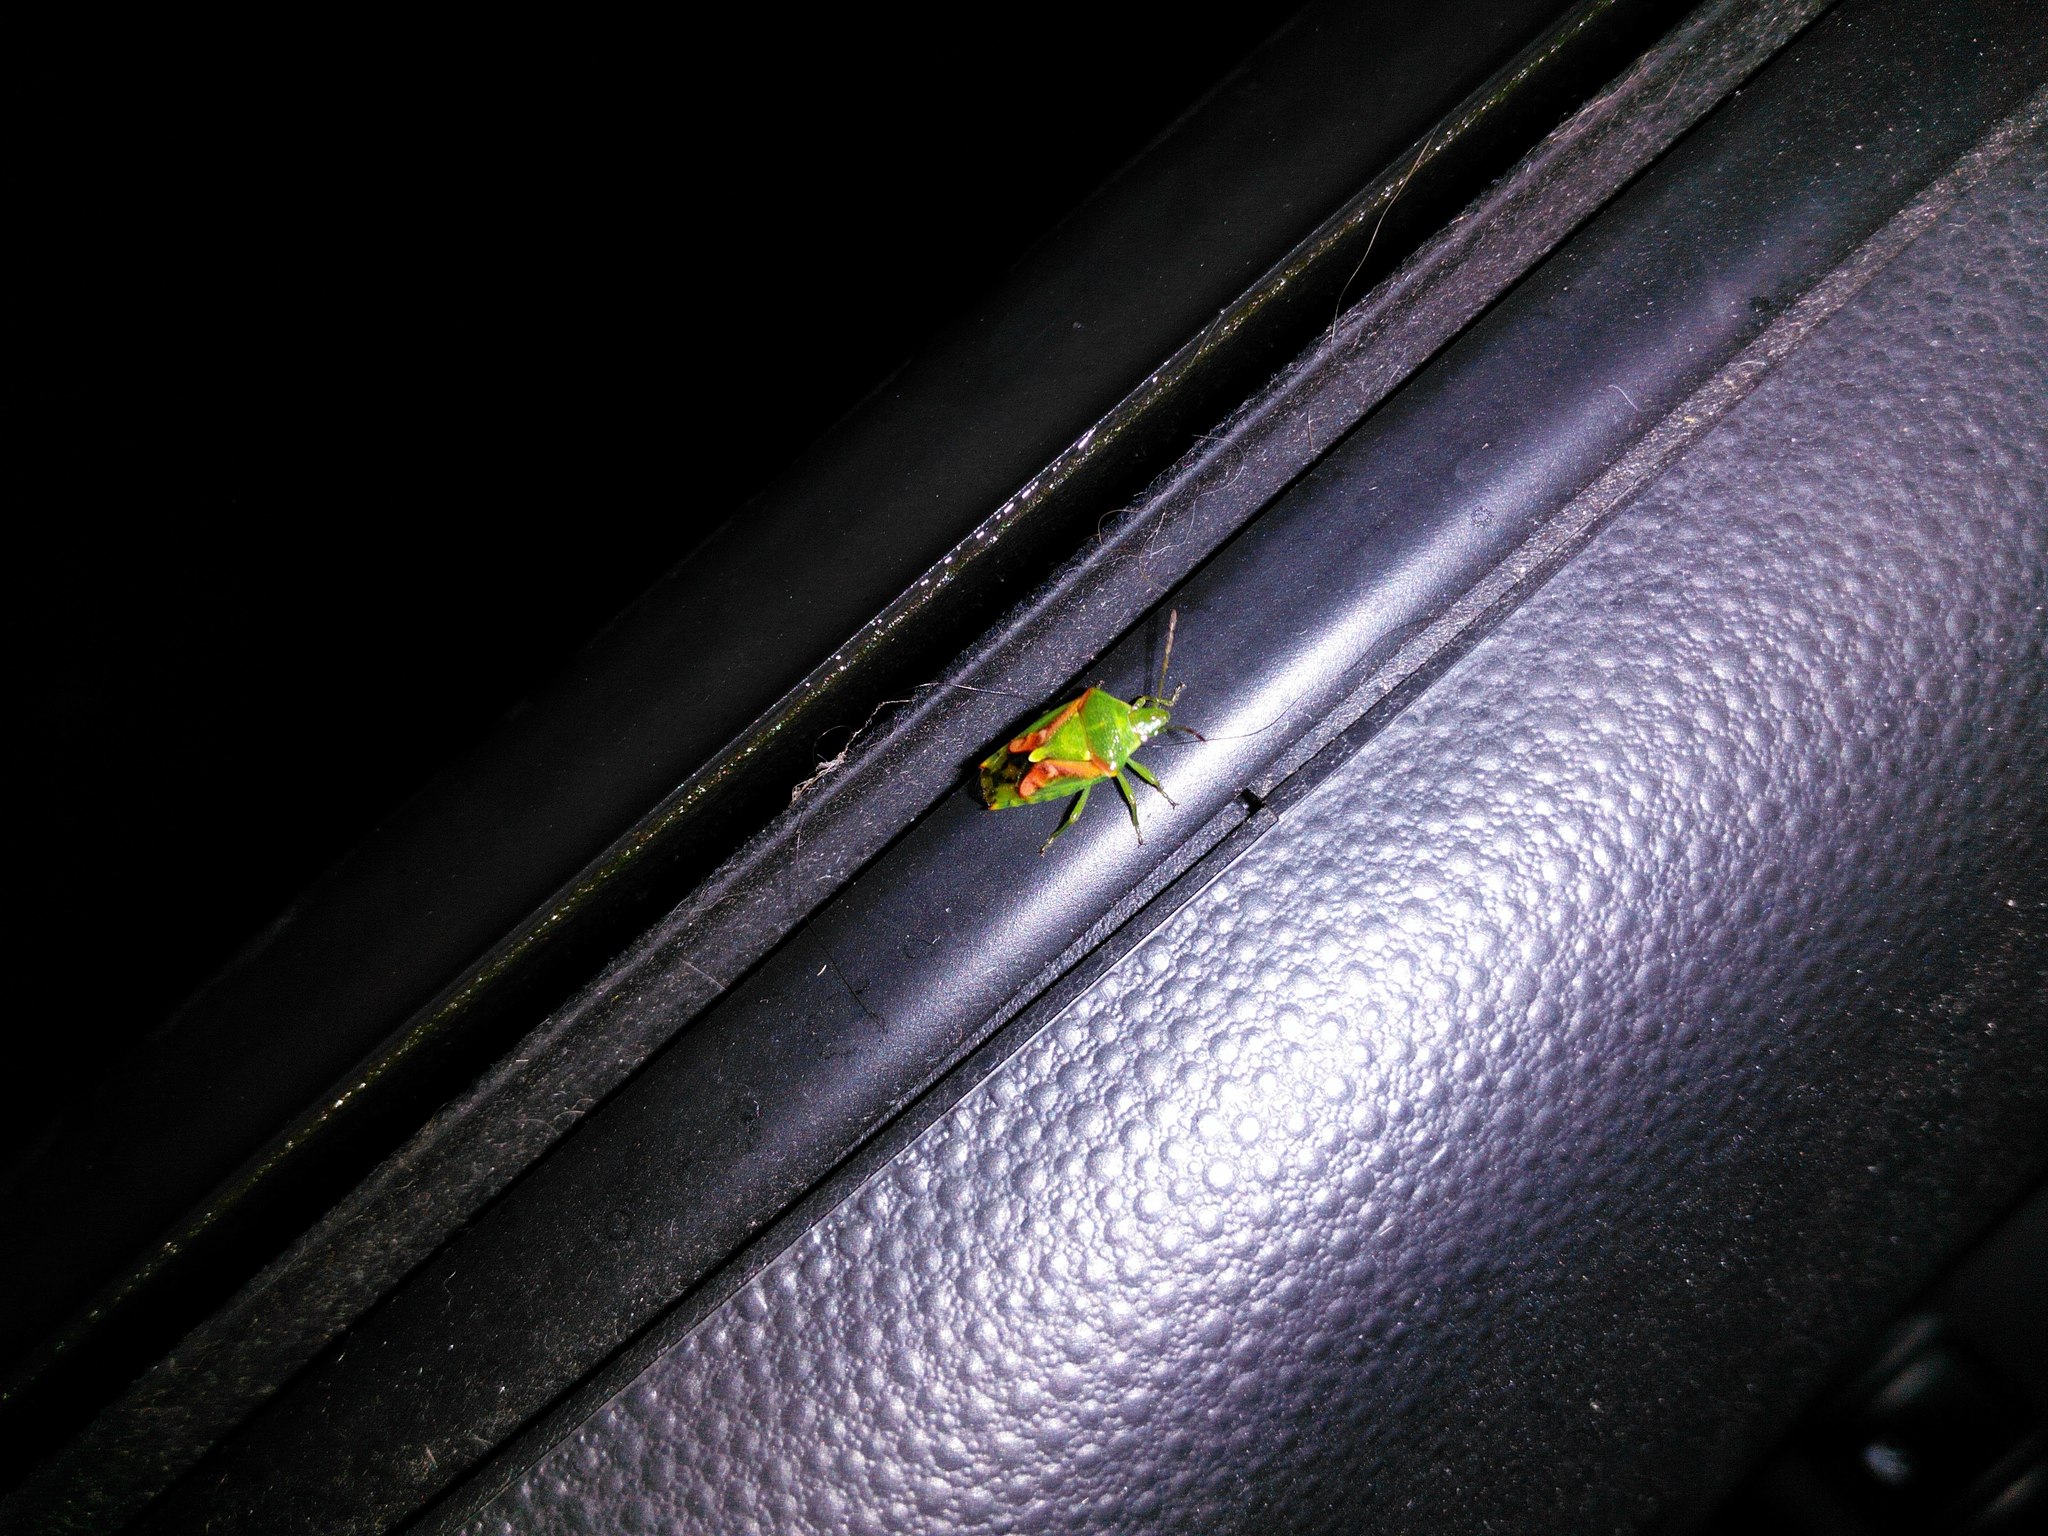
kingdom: Animalia
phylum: Arthropoda
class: Insecta
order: Hemiptera
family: Acanthosomatidae
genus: Cyphostethus
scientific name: Cyphostethus tristriatus
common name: Juniper shieldbug
